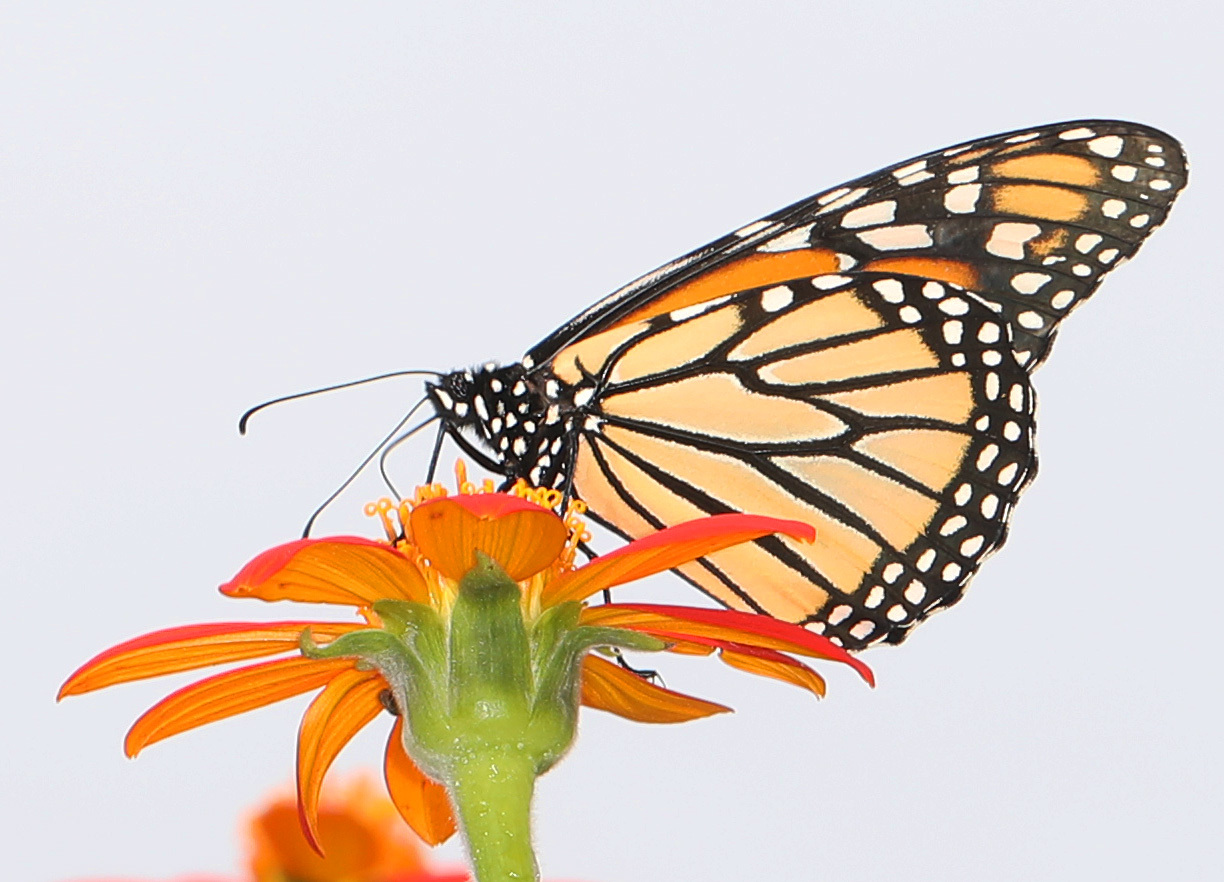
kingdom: Animalia
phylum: Arthropoda
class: Insecta
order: Lepidoptera
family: Nymphalidae
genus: Danaus
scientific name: Danaus plexippus
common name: Monarch
